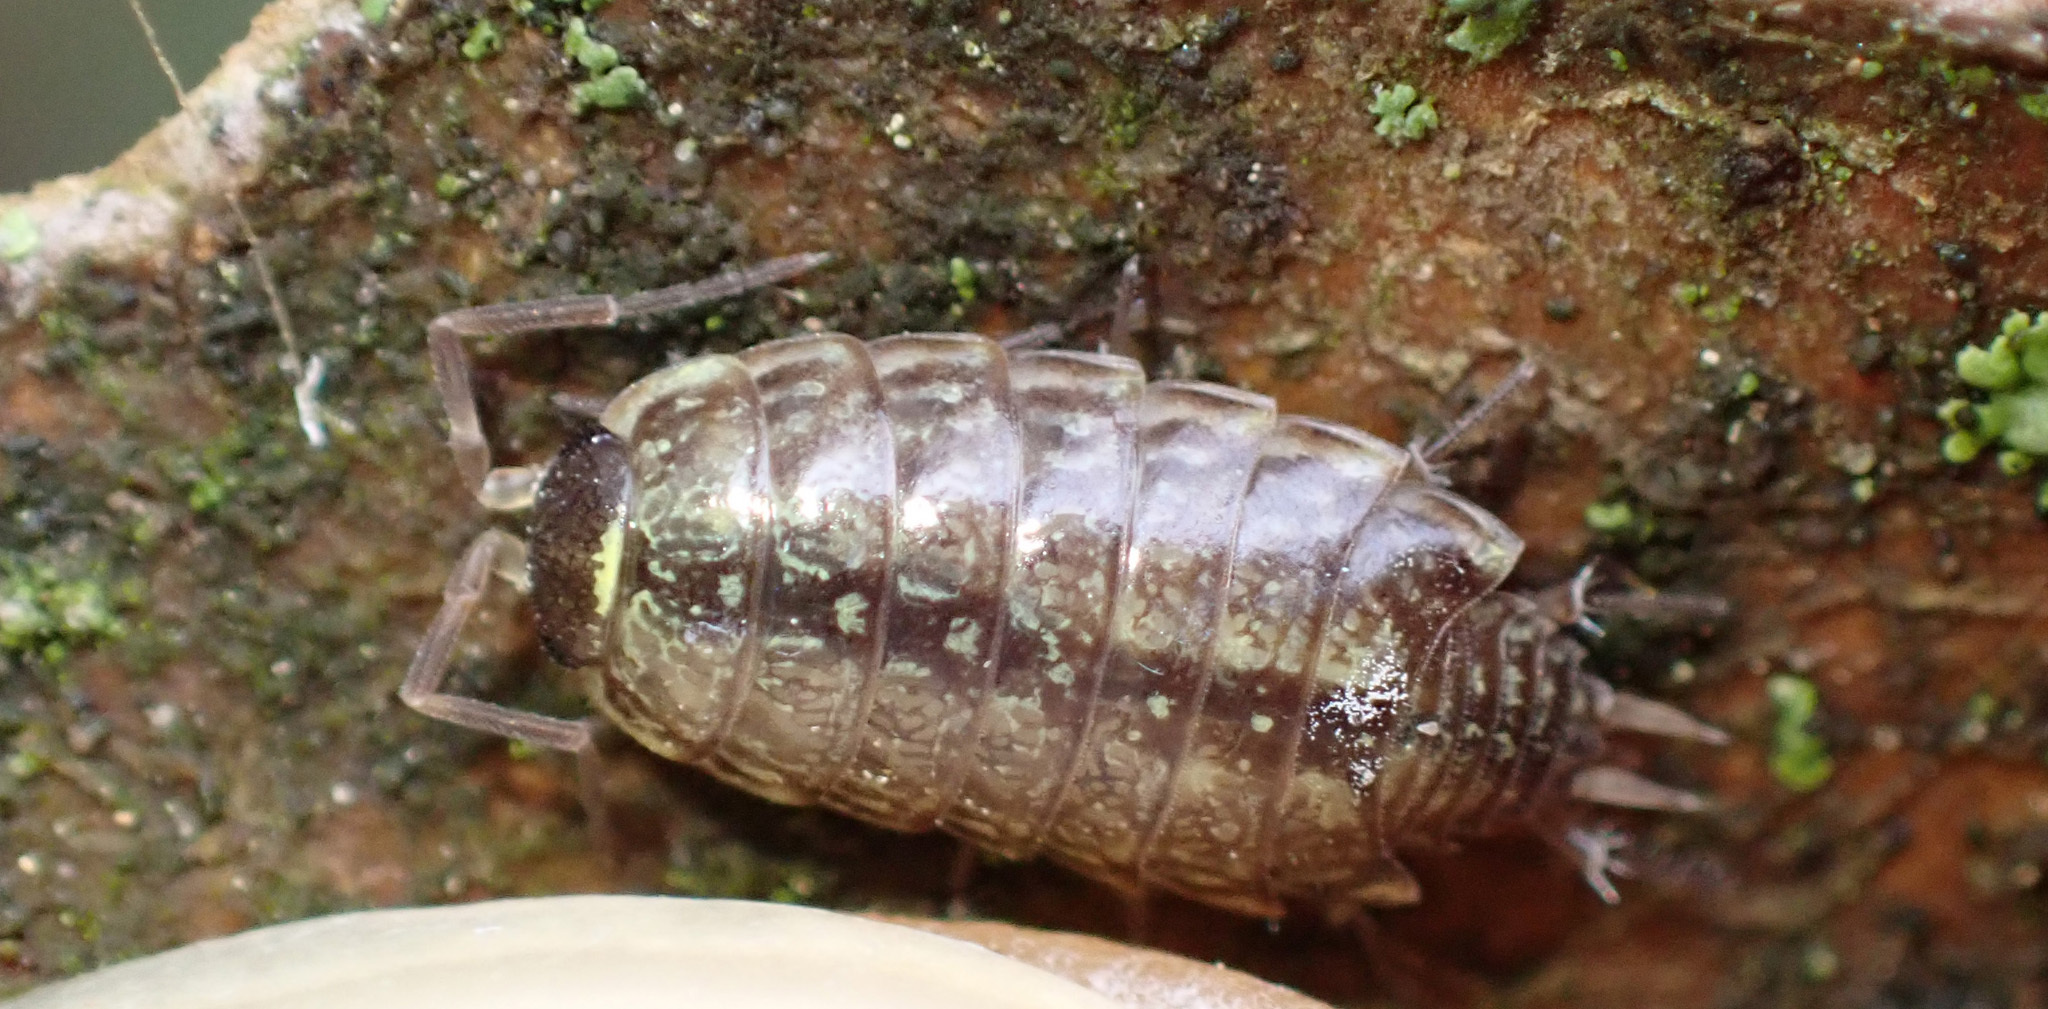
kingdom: Animalia
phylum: Arthropoda
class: Malacostraca
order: Isopoda
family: Philosciidae
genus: Philoscia
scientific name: Philoscia muscorum
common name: Common striped woodlouse
